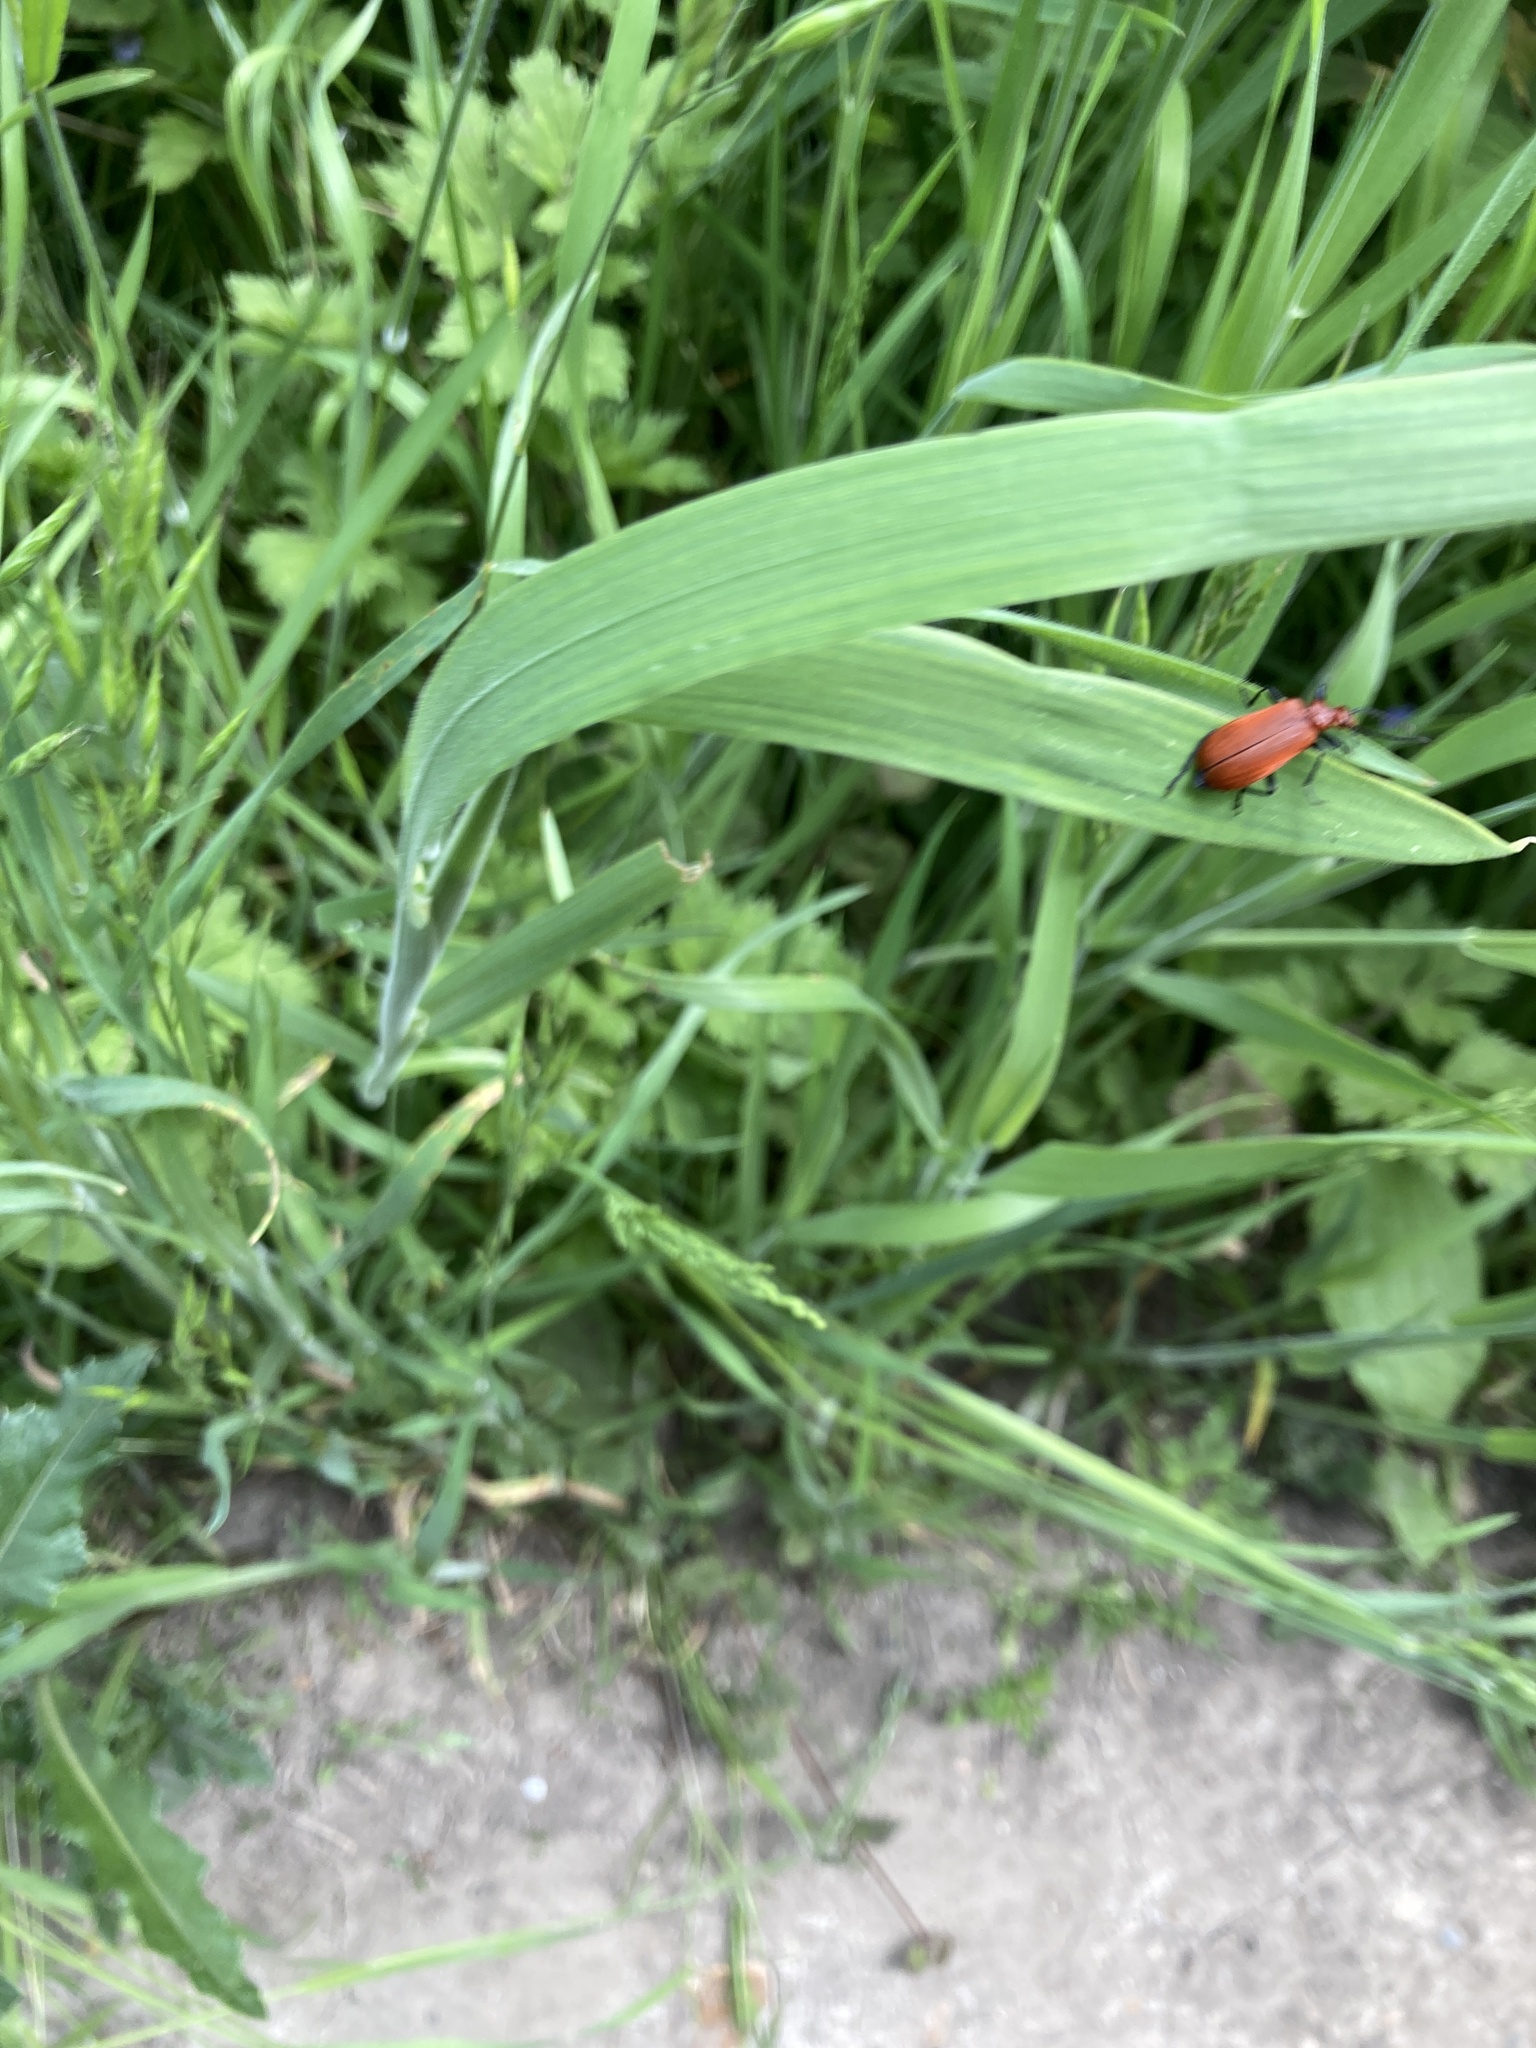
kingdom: Animalia
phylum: Arthropoda
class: Insecta
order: Coleoptera
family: Pyrochroidae
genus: Pyrochroa
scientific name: Pyrochroa serraticornis
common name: Red-headed cardinal beetle
